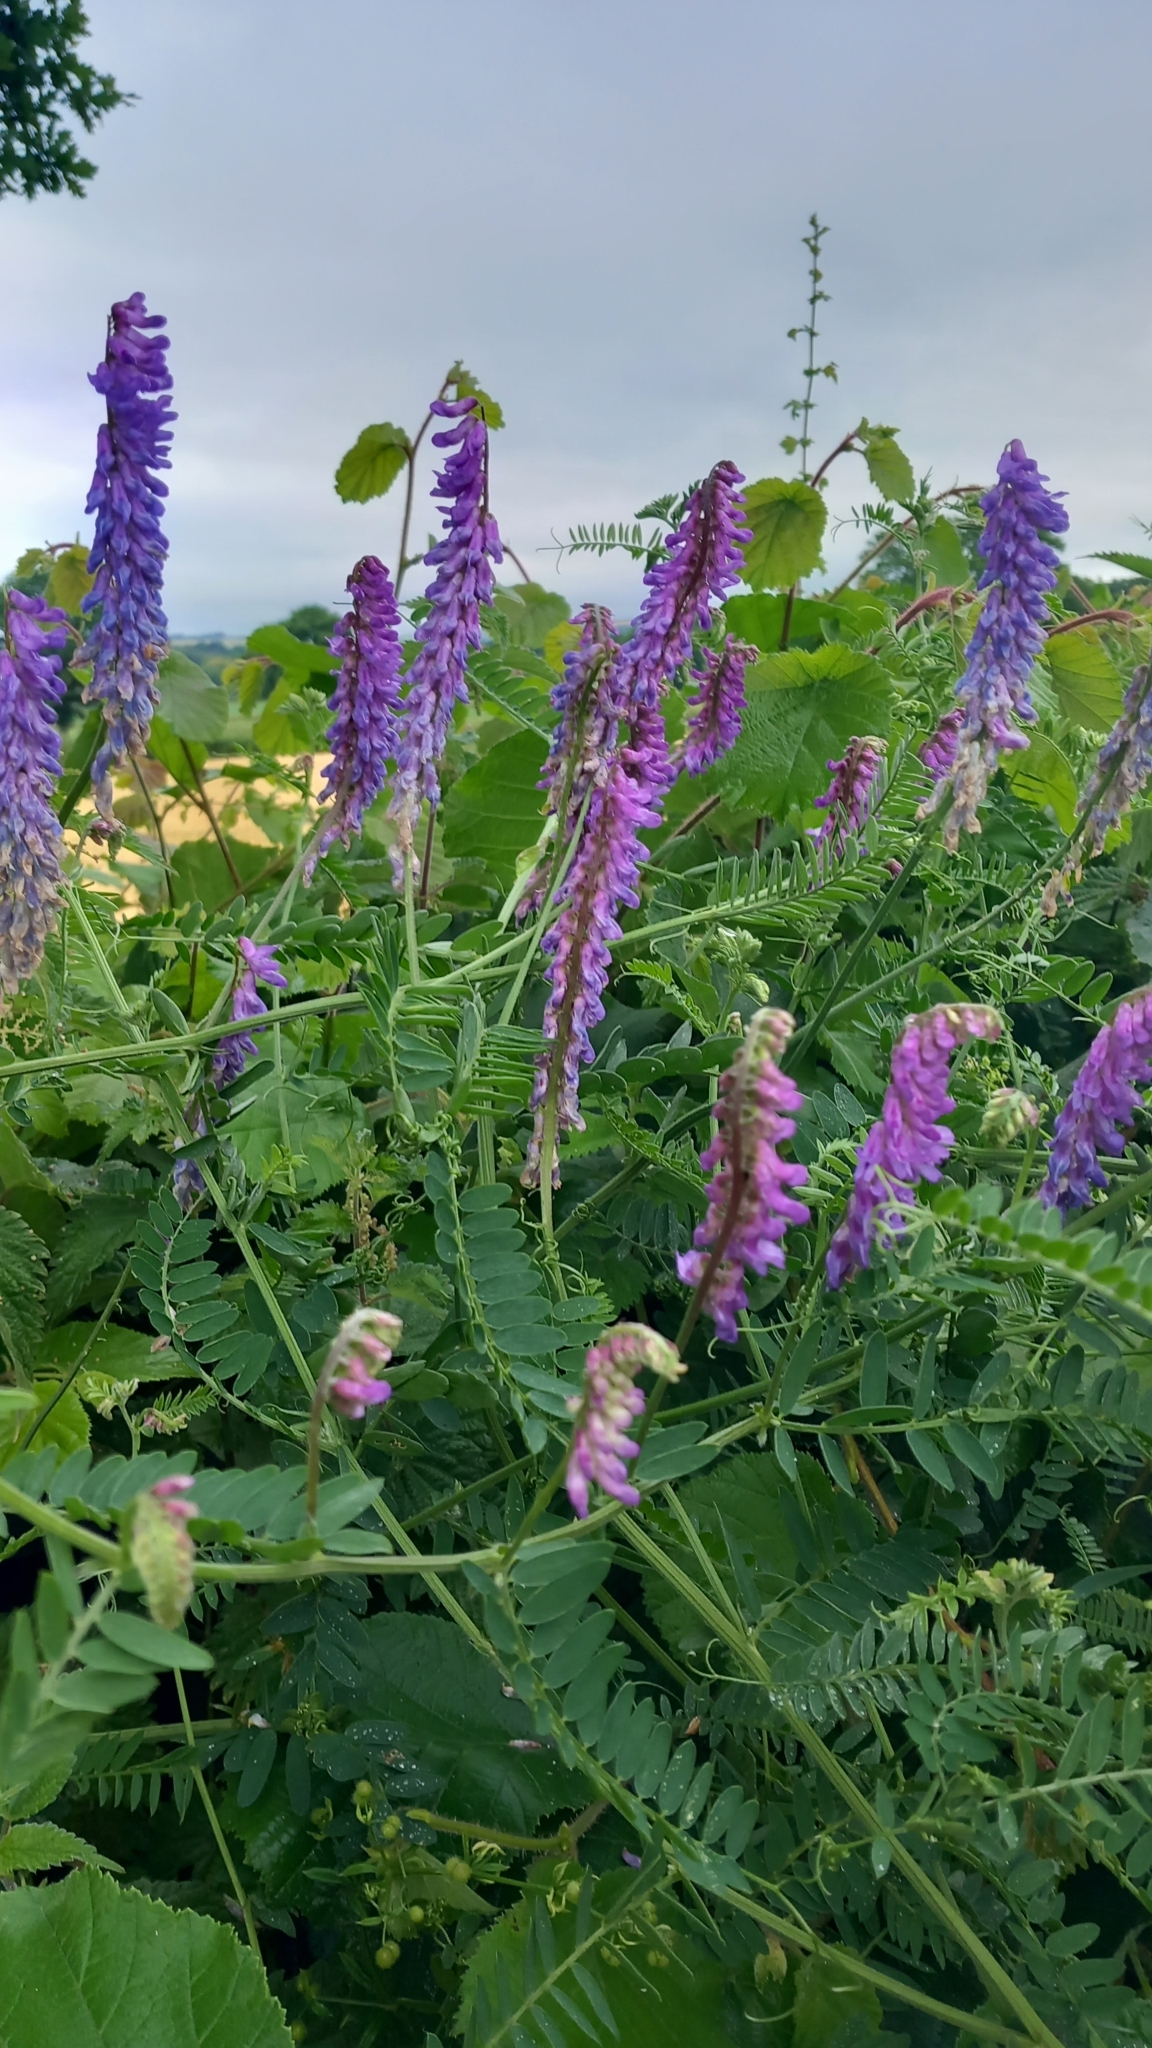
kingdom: Plantae
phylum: Tracheophyta
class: Magnoliopsida
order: Fabales
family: Fabaceae
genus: Vicia
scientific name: Vicia cracca
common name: Bird vetch
